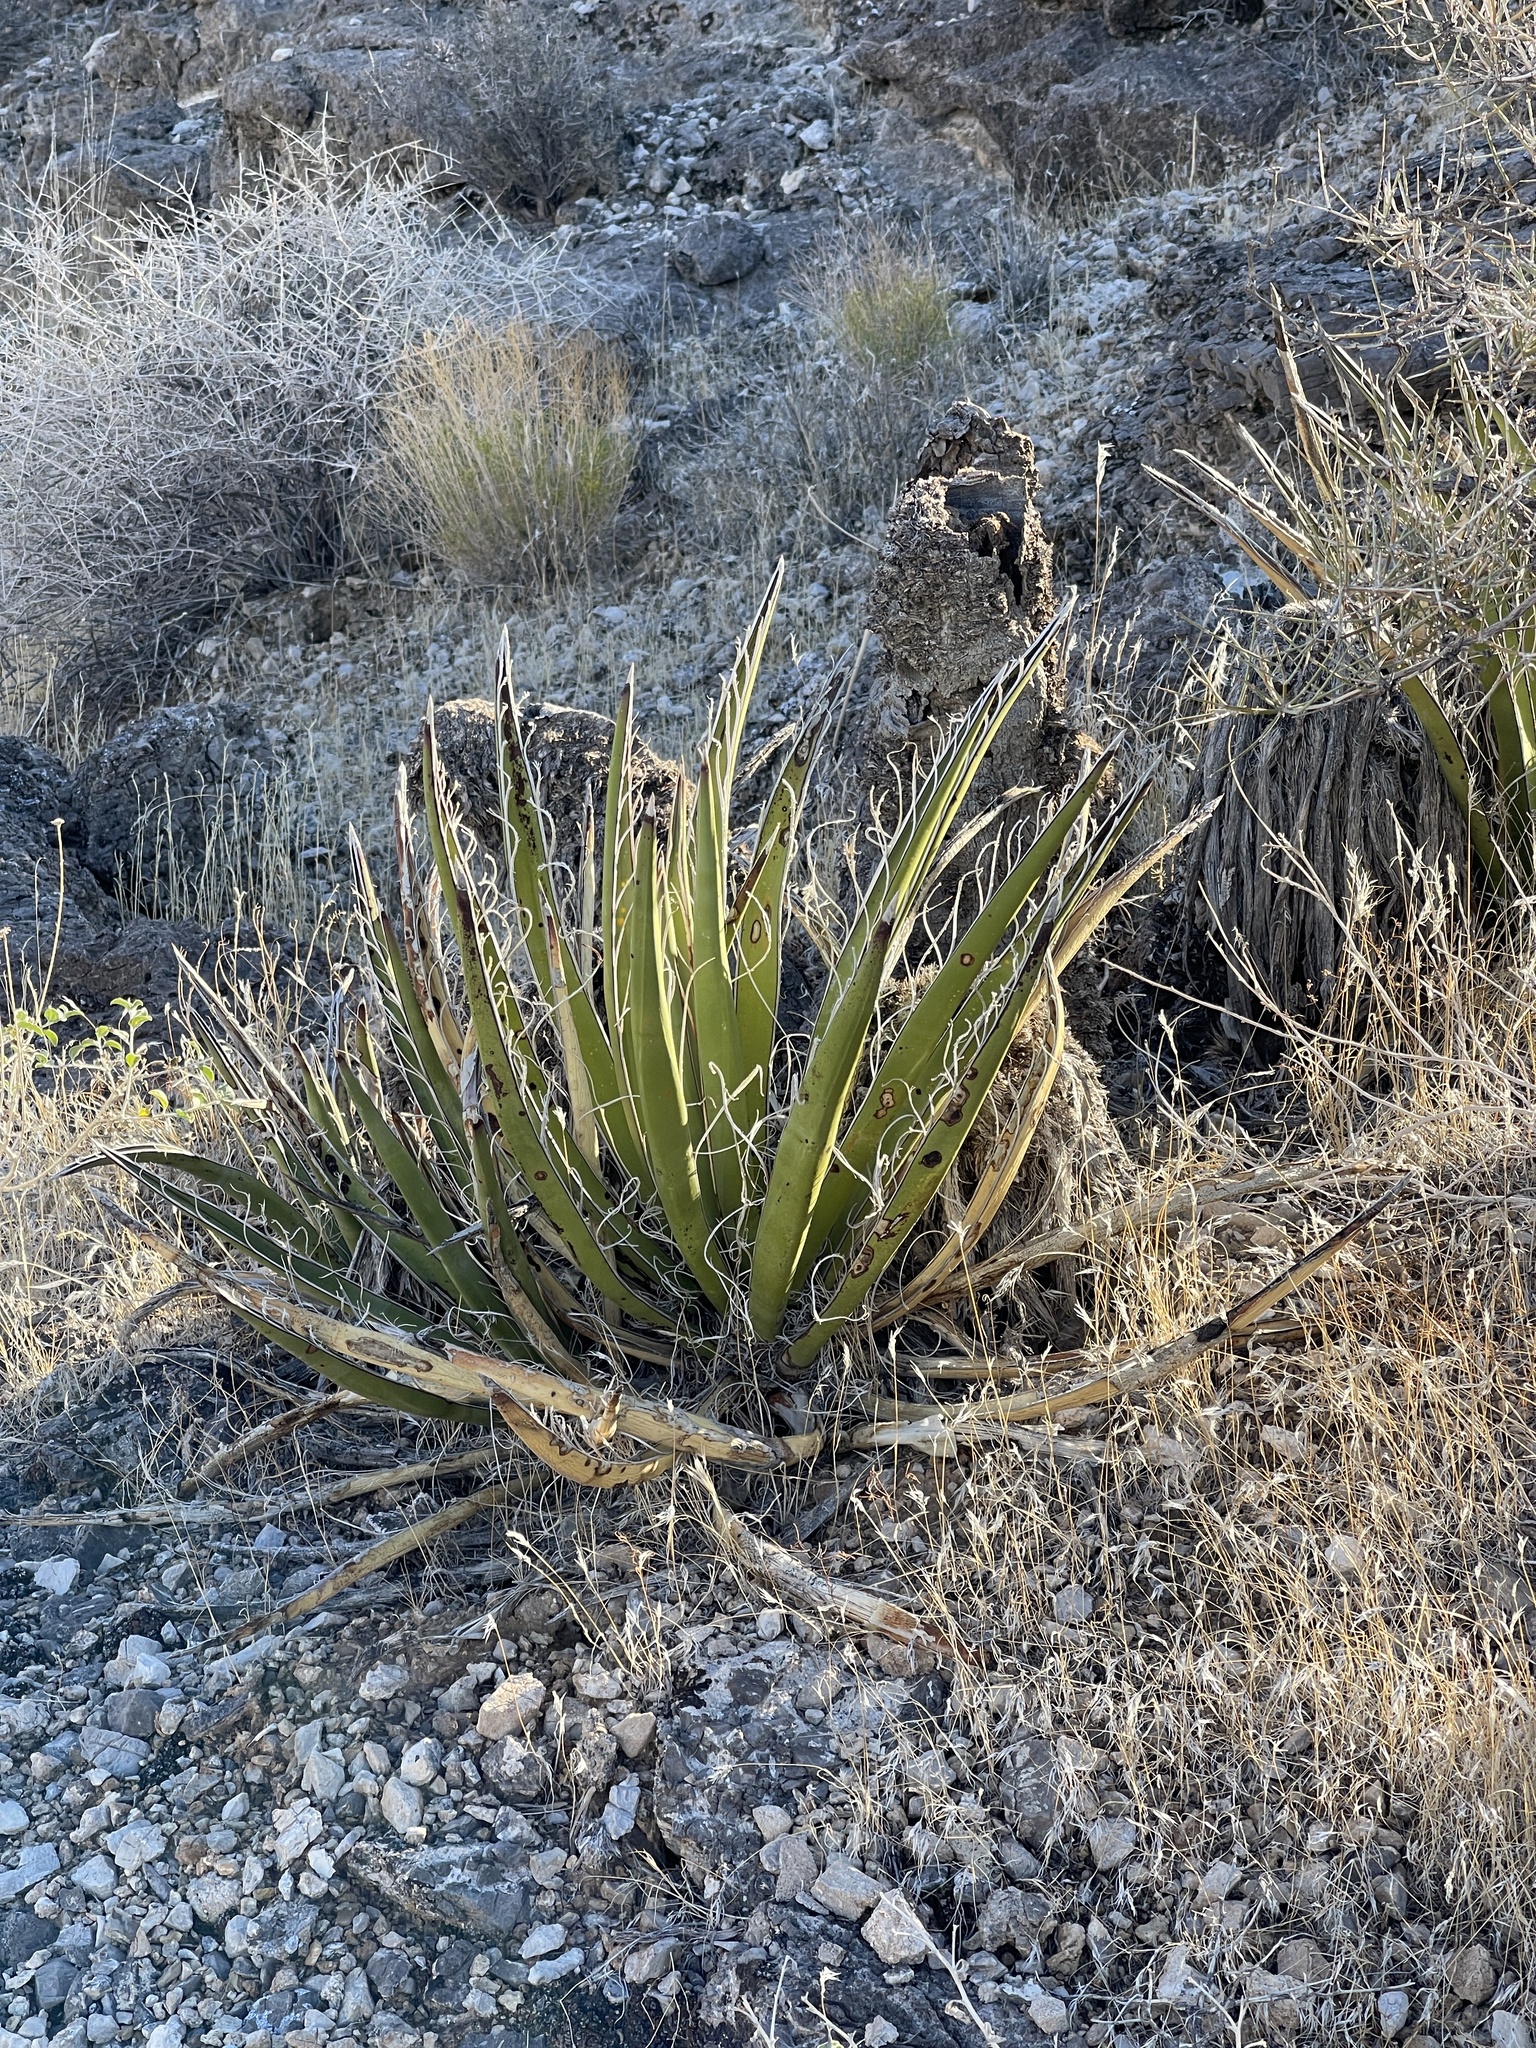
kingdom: Plantae
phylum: Tracheophyta
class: Liliopsida
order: Asparagales
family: Asparagaceae
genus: Yucca
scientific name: Yucca baccata
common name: Banana yucca
